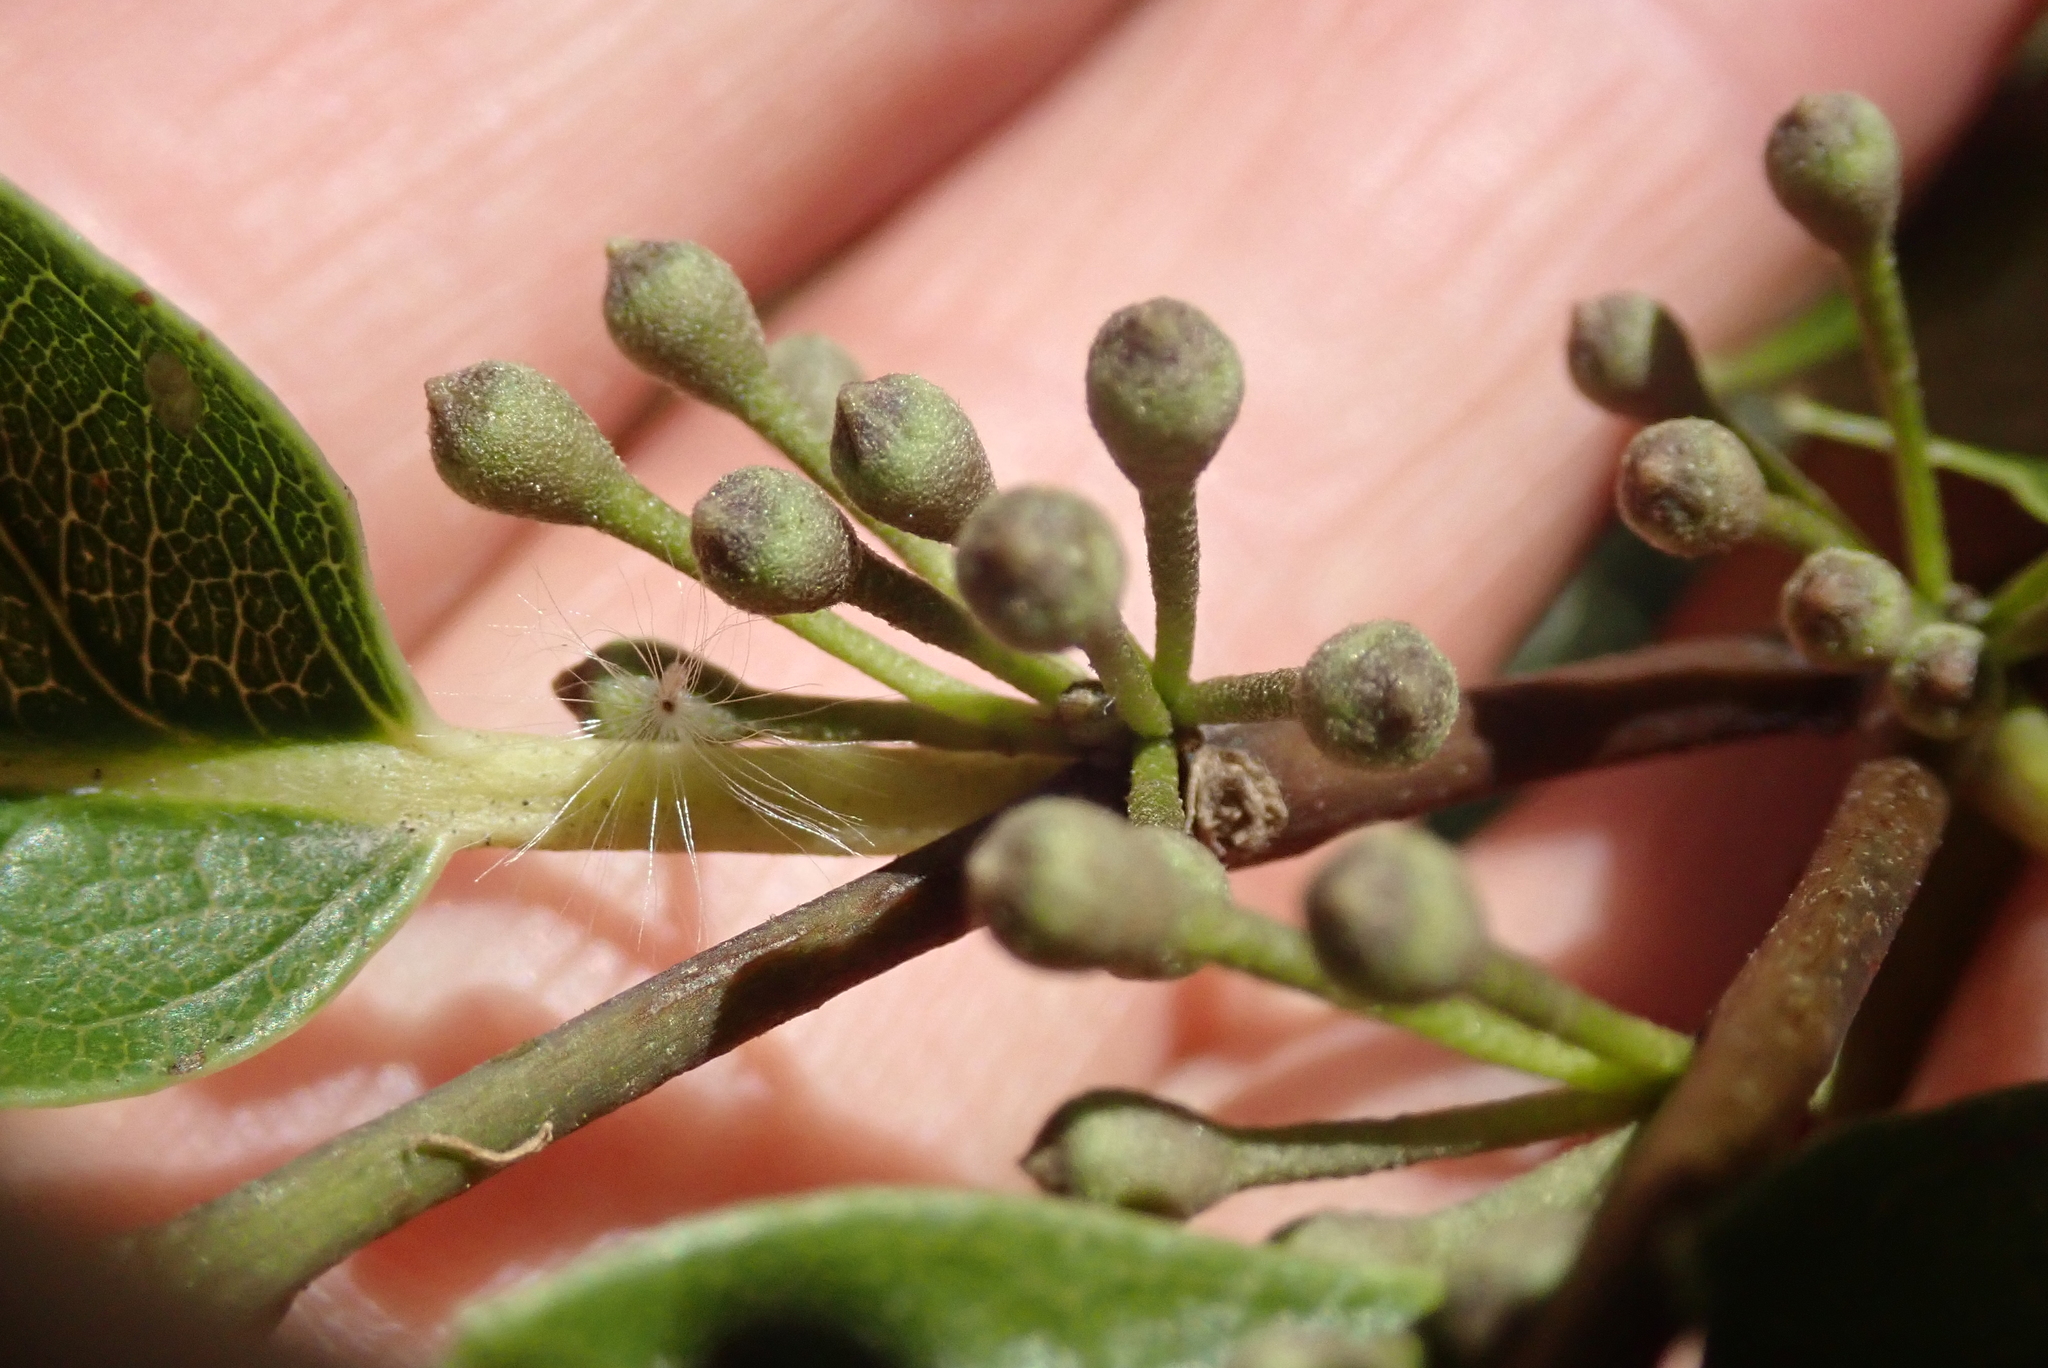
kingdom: Plantae
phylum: Tracheophyta
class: Magnoliopsida
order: Malvales
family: Malvaceae
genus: Hoheria
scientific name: Hoheria populnea
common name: Lacebark
